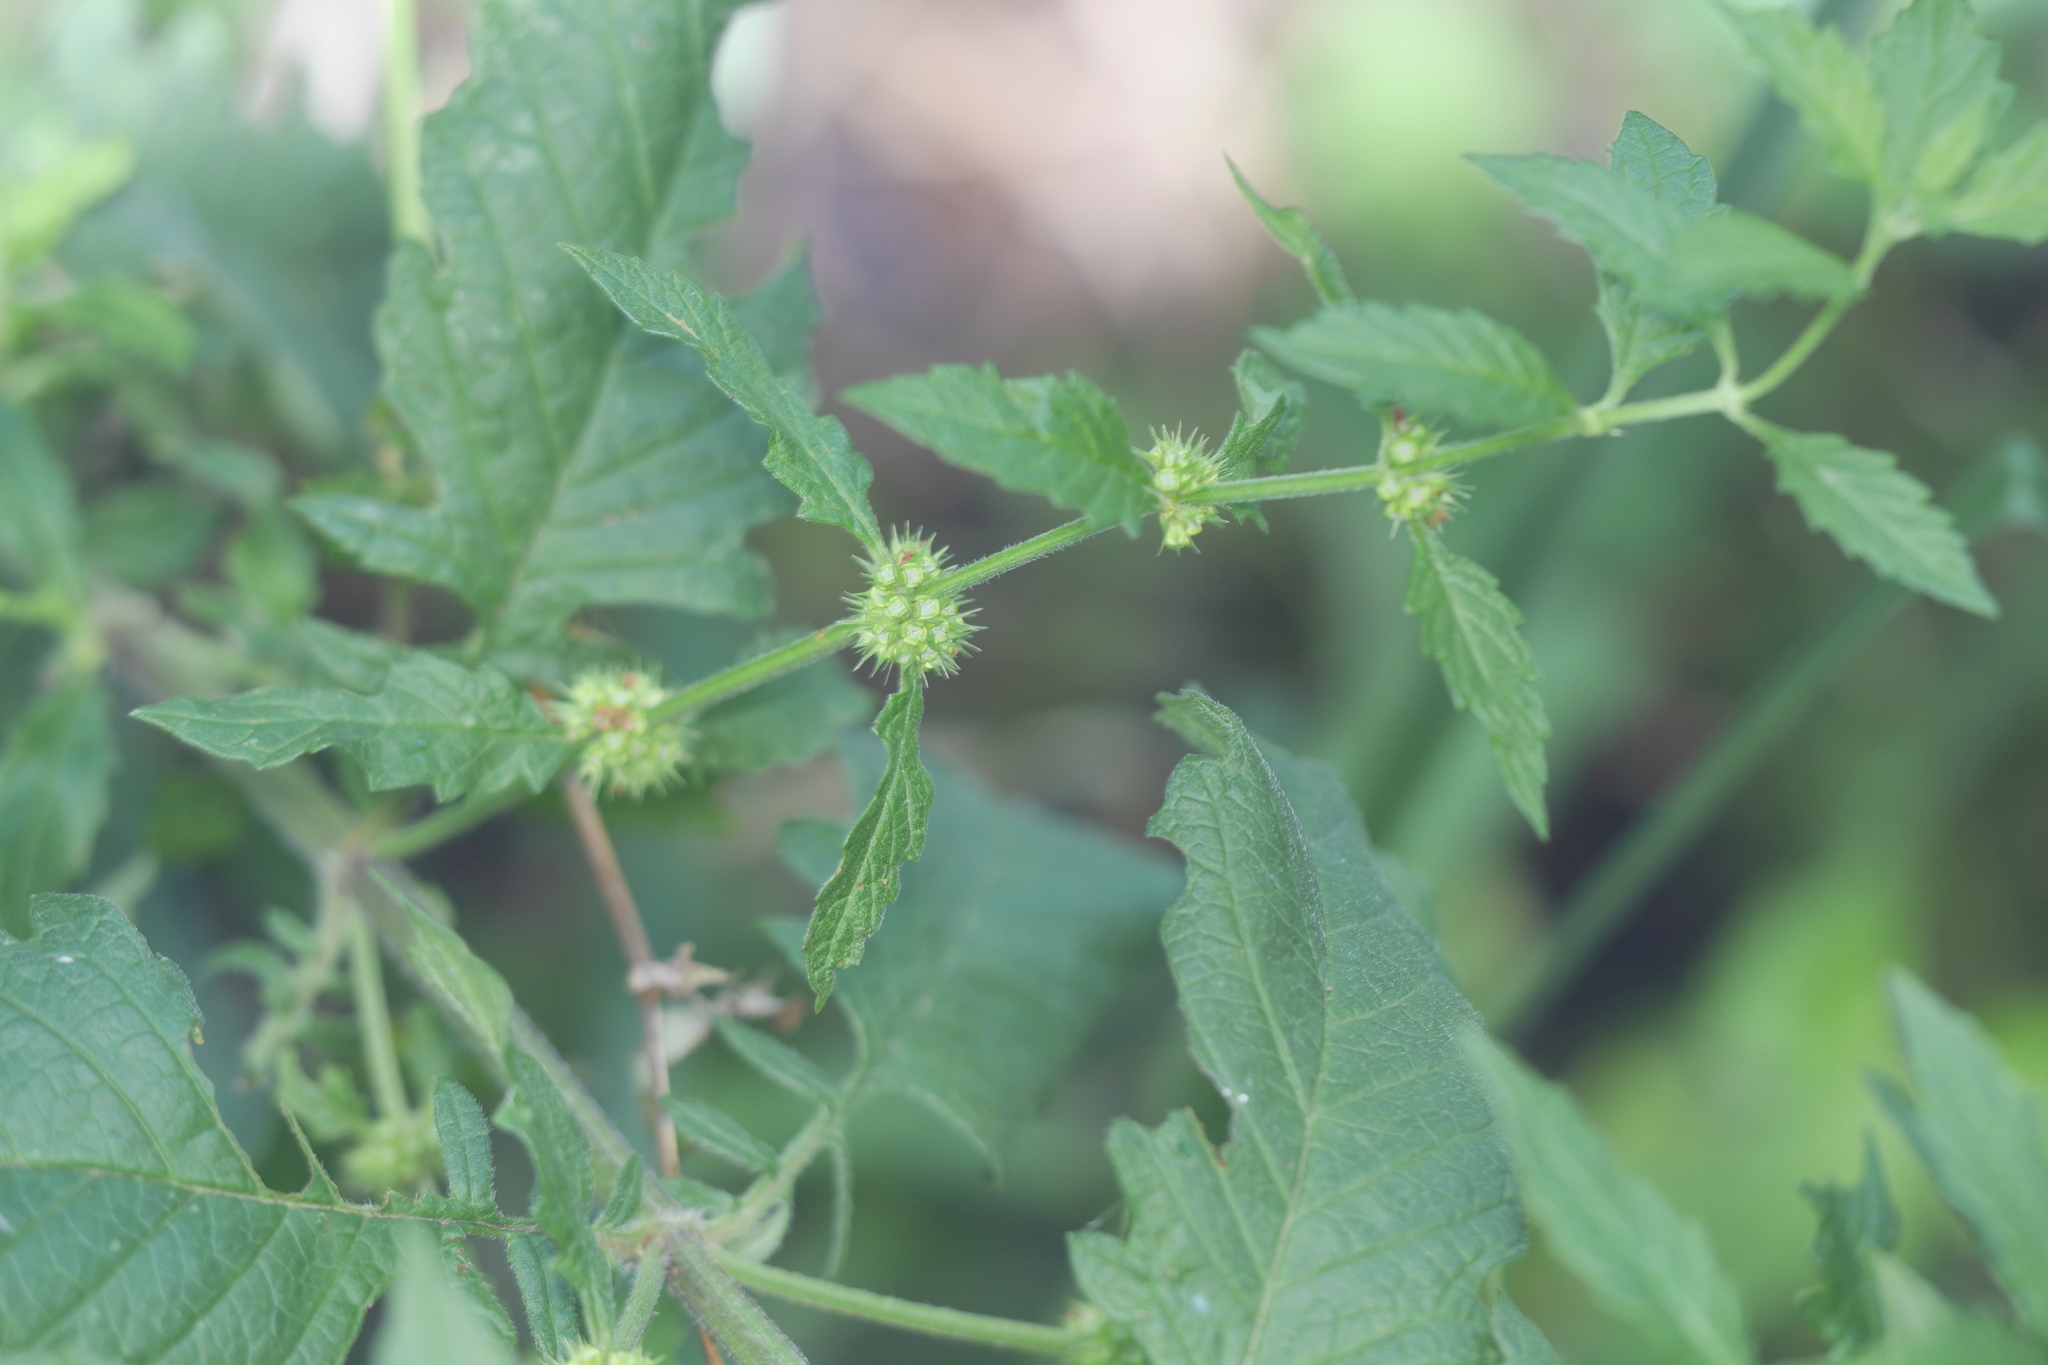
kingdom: Plantae
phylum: Tracheophyta
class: Magnoliopsida
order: Lamiales
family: Lamiaceae
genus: Lycopus
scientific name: Lycopus europaeus
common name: European bugleweed
